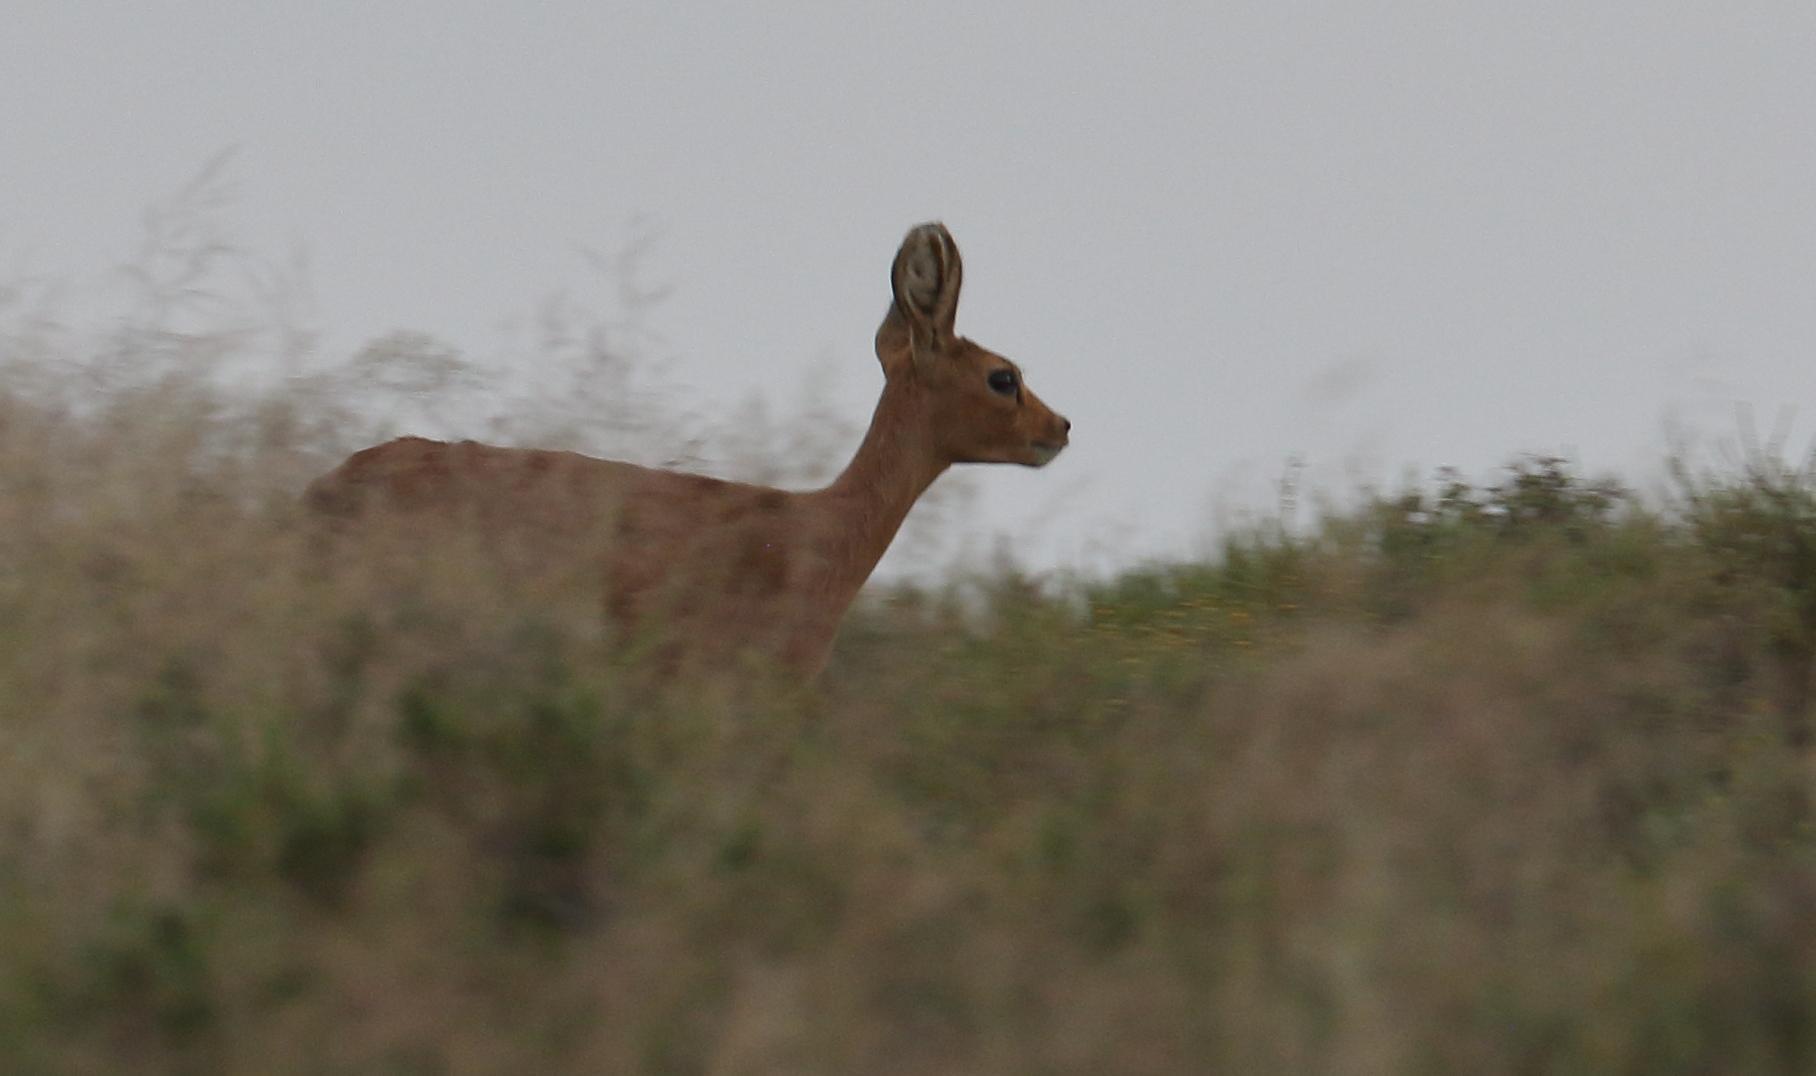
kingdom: Animalia
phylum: Chordata
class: Mammalia
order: Artiodactyla
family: Bovidae
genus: Raphicerus
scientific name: Raphicerus campestris
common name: Steenbok
